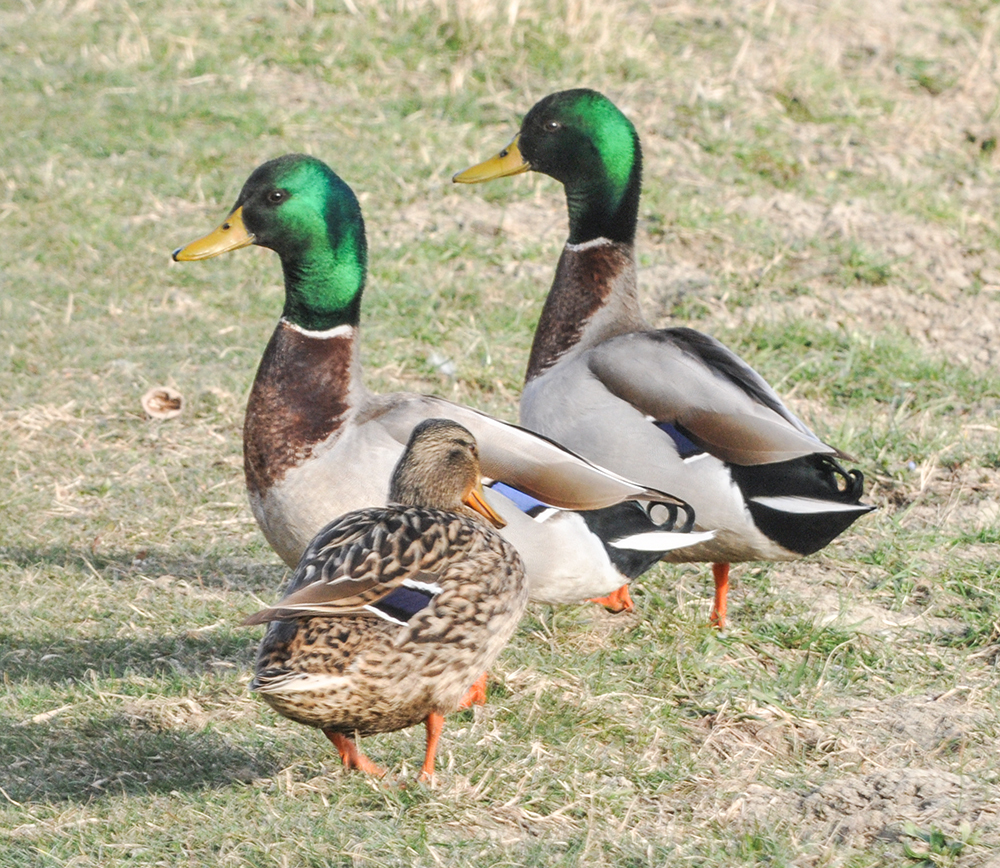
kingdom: Animalia
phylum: Chordata
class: Aves
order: Anseriformes
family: Anatidae
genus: Anas
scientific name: Anas platyrhynchos
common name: Mallard
